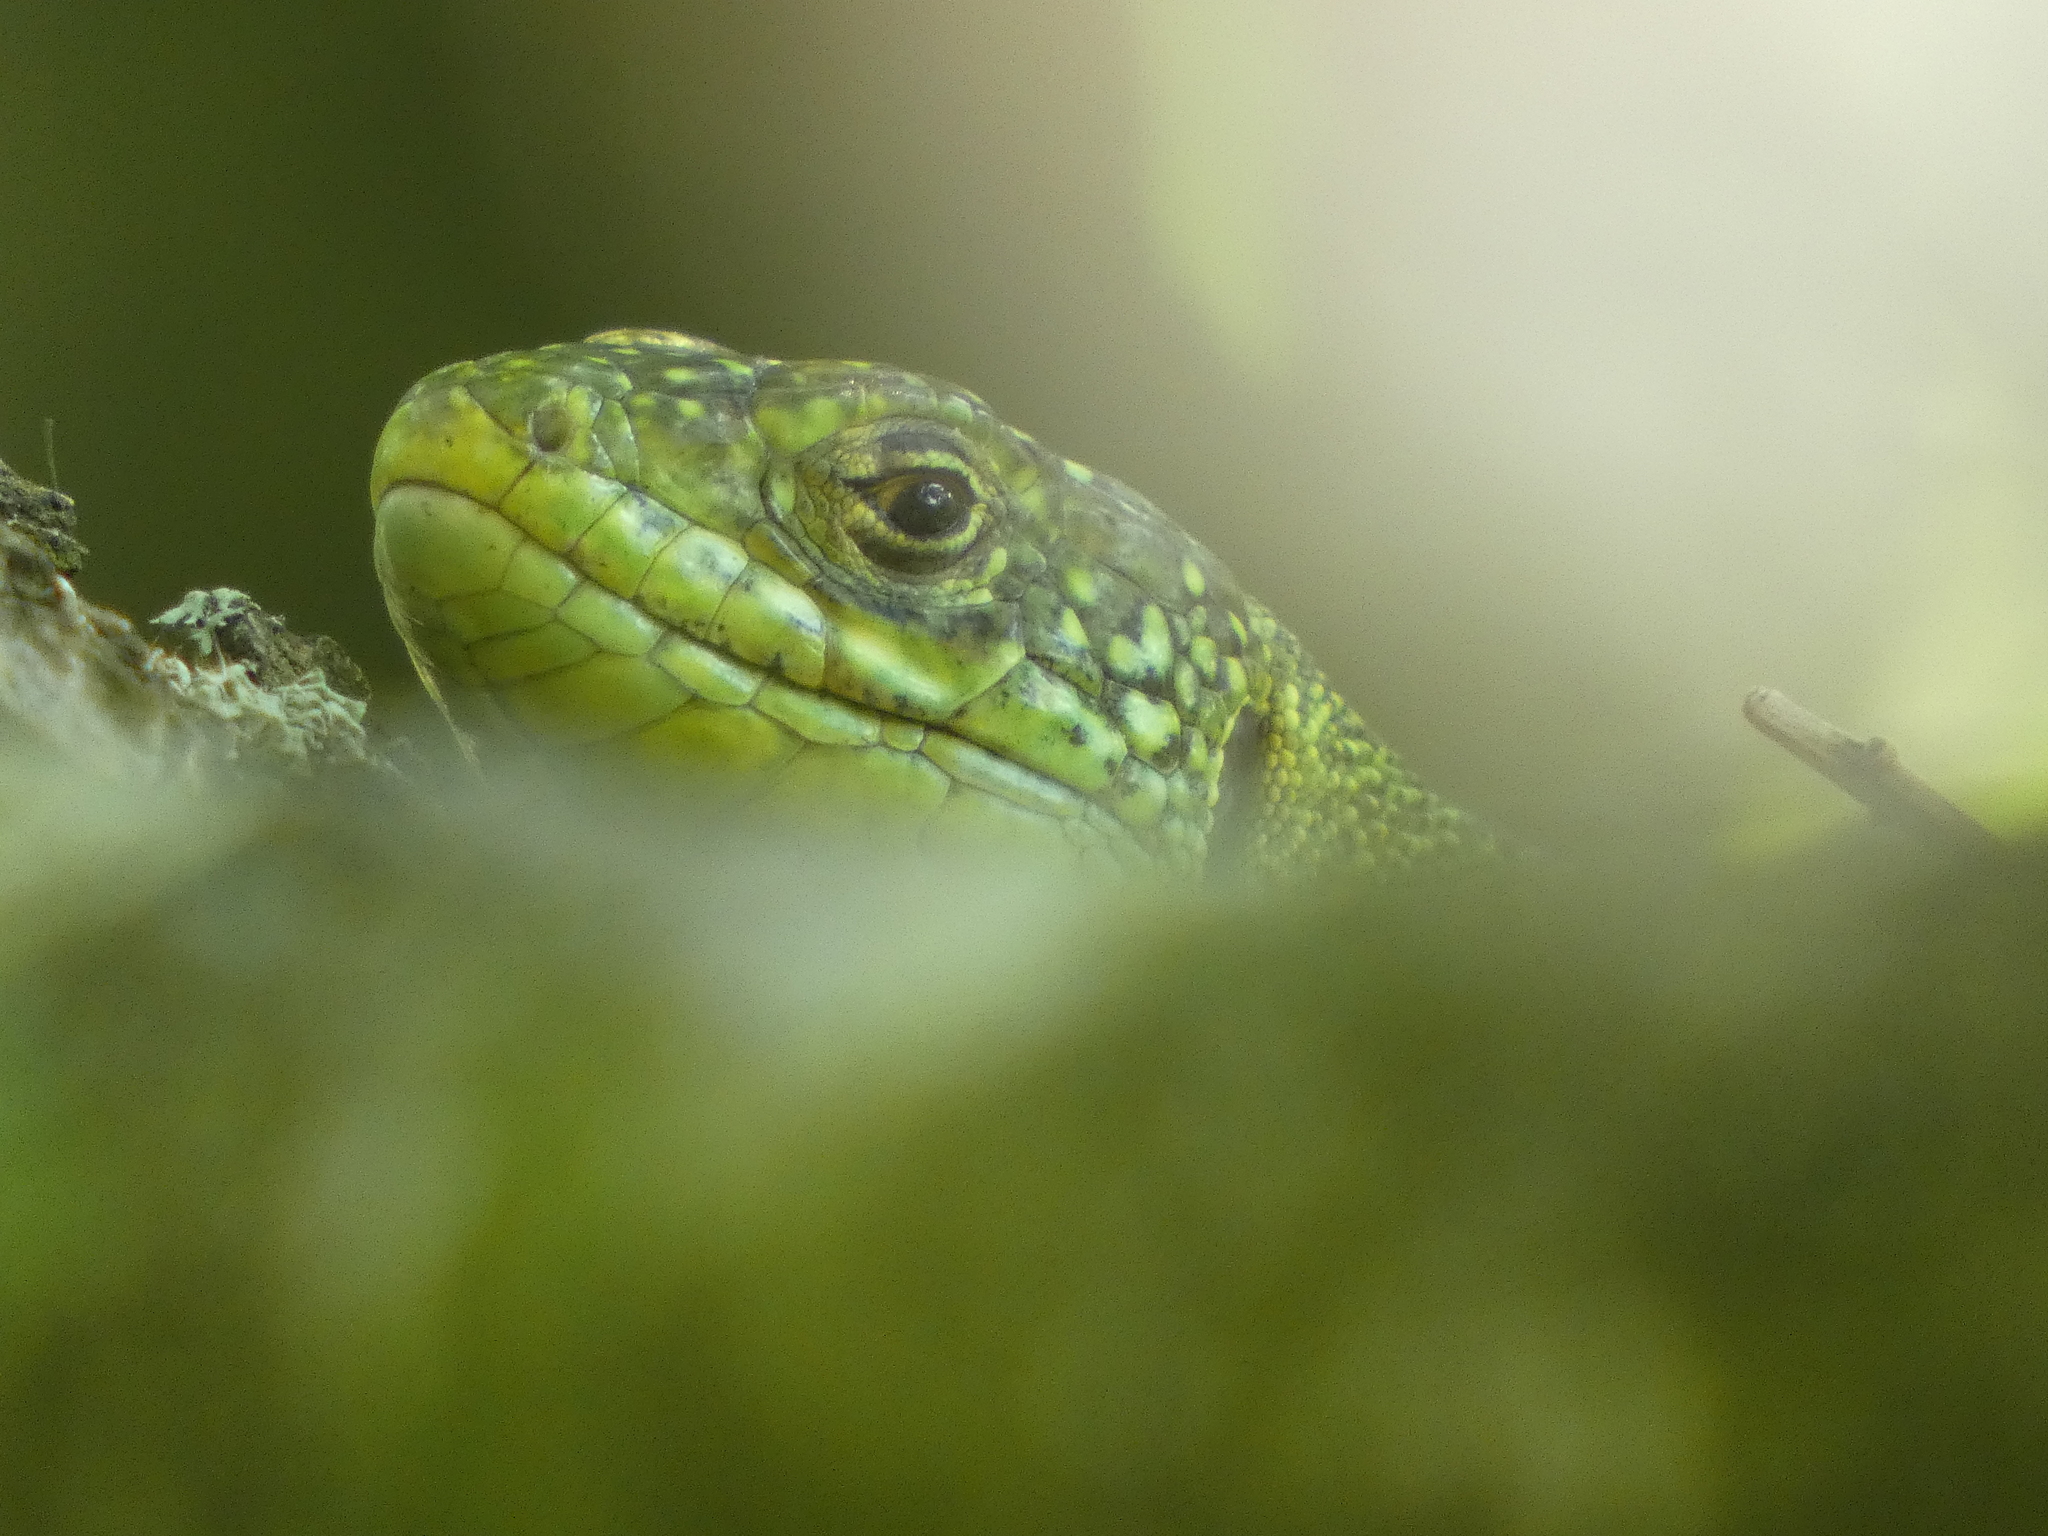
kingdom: Animalia
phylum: Chordata
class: Squamata
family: Lacertidae
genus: Lacerta
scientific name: Lacerta bilineata
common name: Western green lizard
